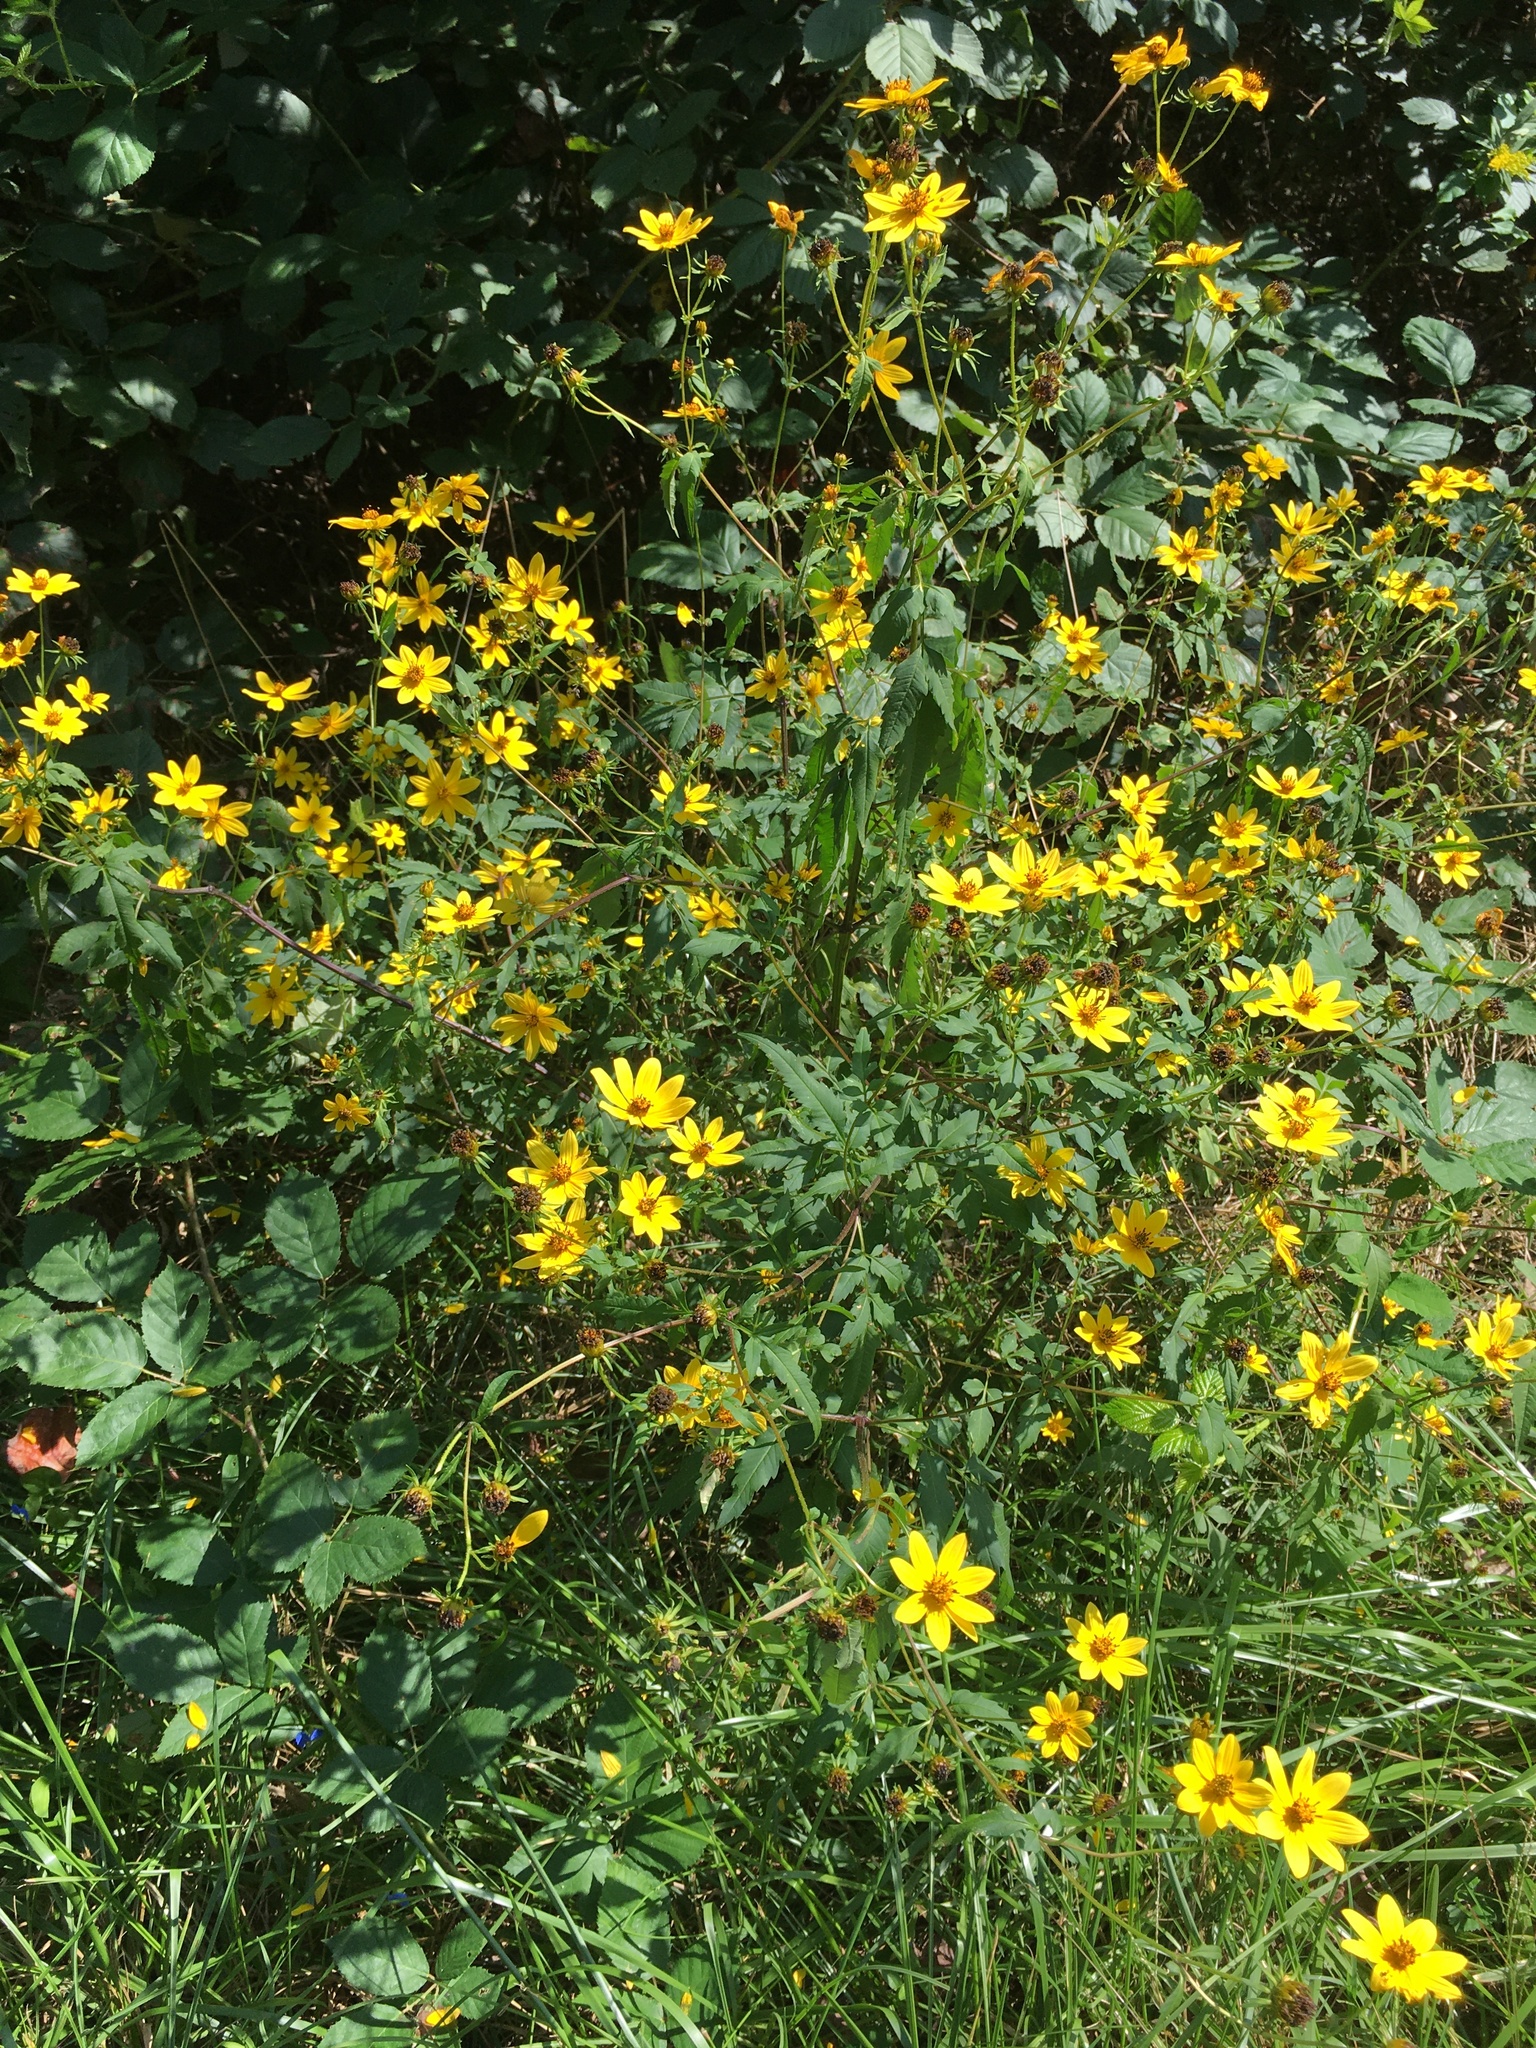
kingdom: Plantae
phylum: Tracheophyta
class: Magnoliopsida
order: Asterales
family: Asteraceae
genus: Bidens
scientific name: Bidens aristosa
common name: Western tickseed
